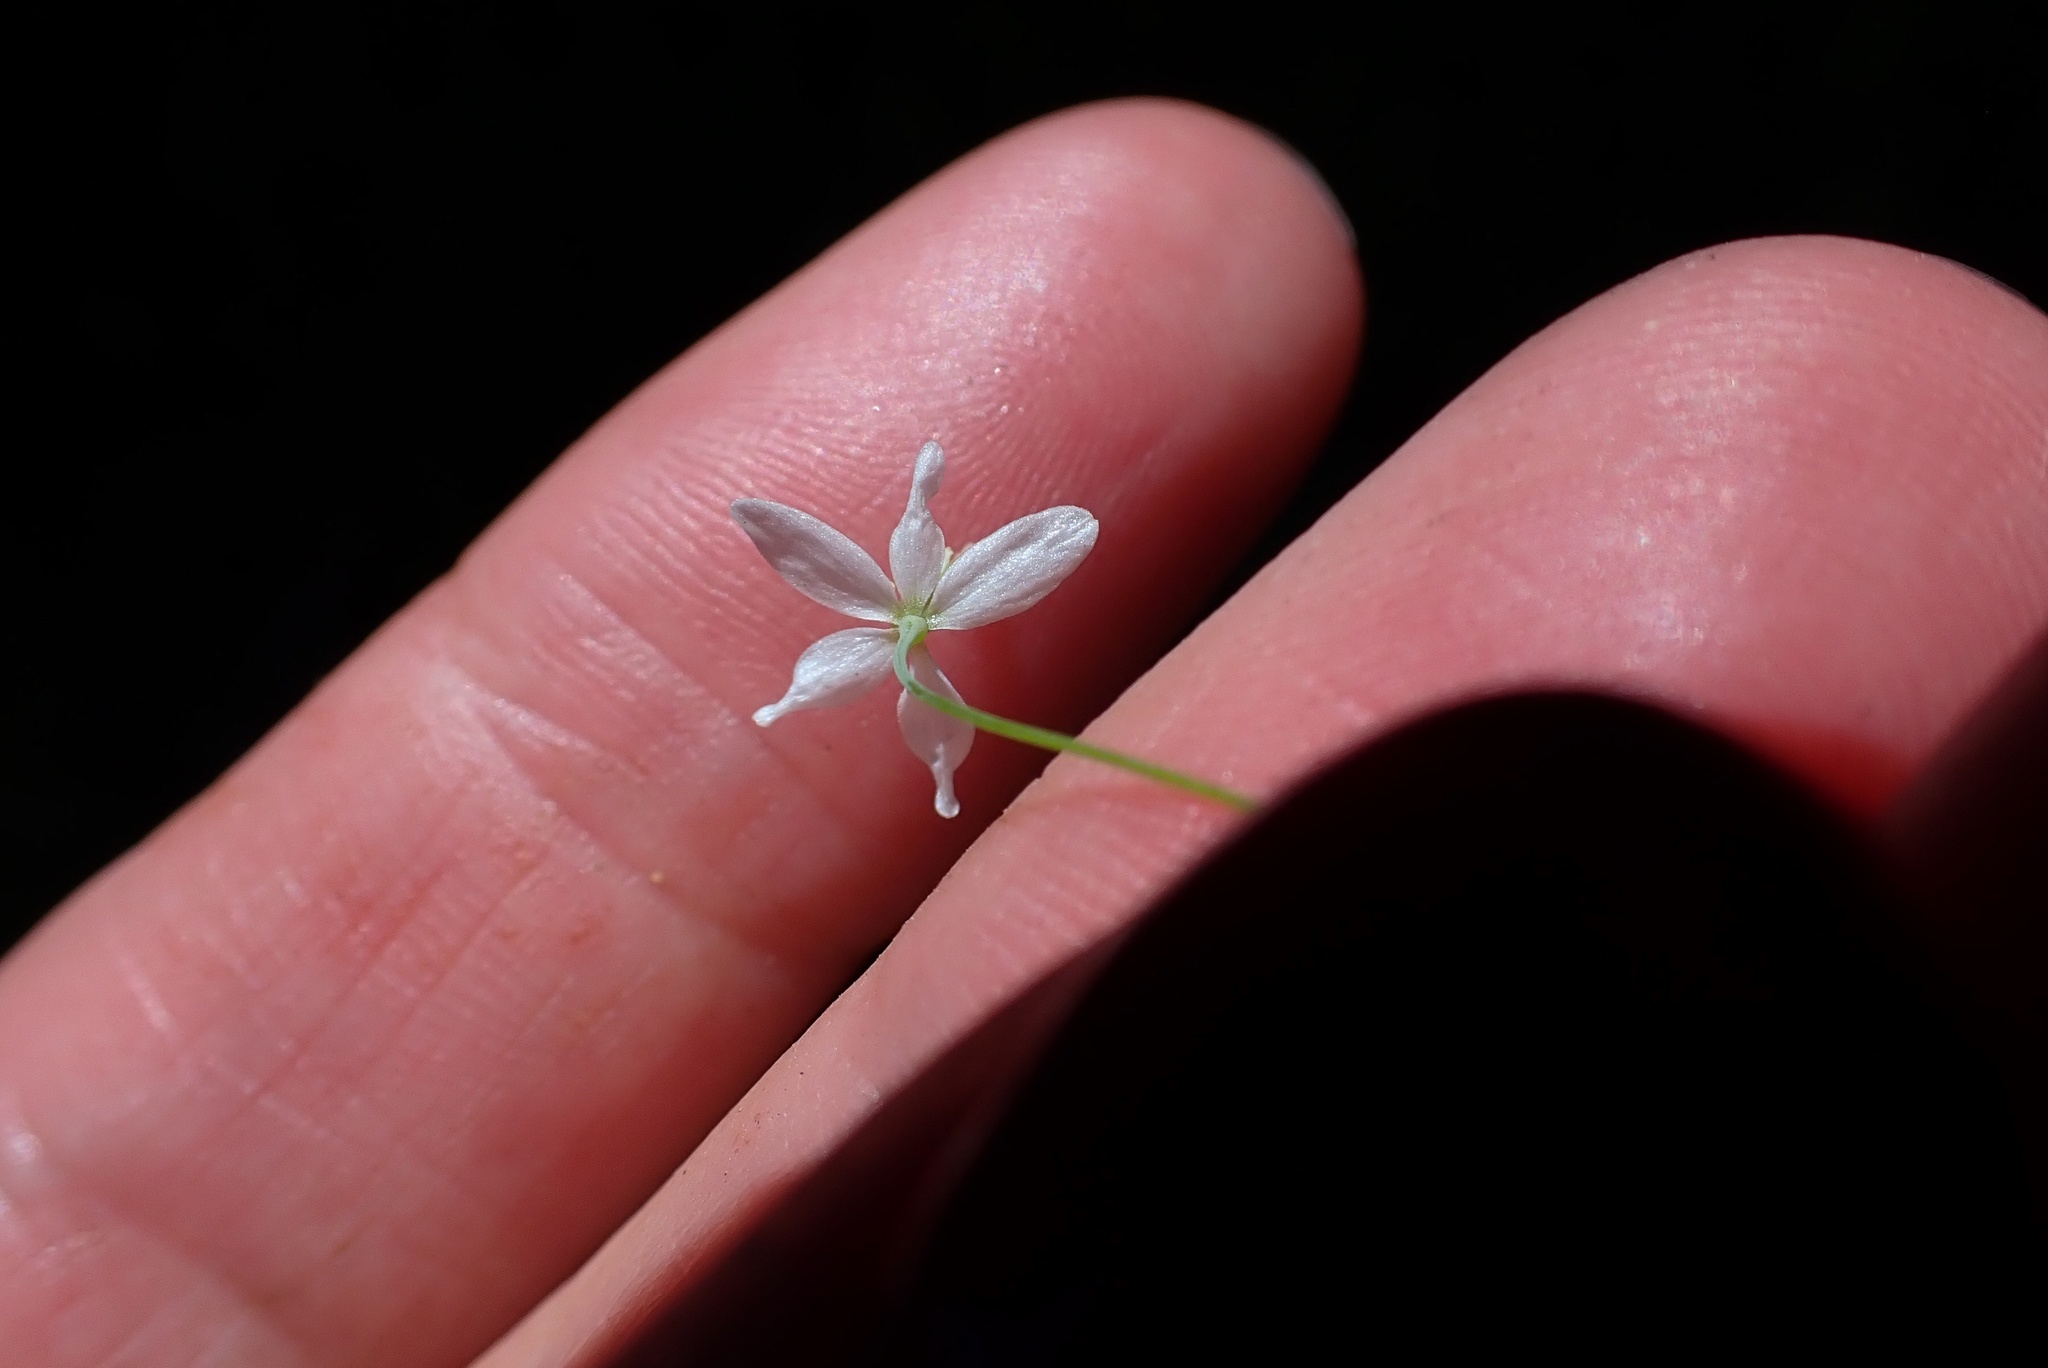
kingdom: Plantae
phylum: Tracheophyta
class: Magnoliopsida
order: Ranunculales
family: Papaveraceae
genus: Meconella
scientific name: Meconella denticulata
